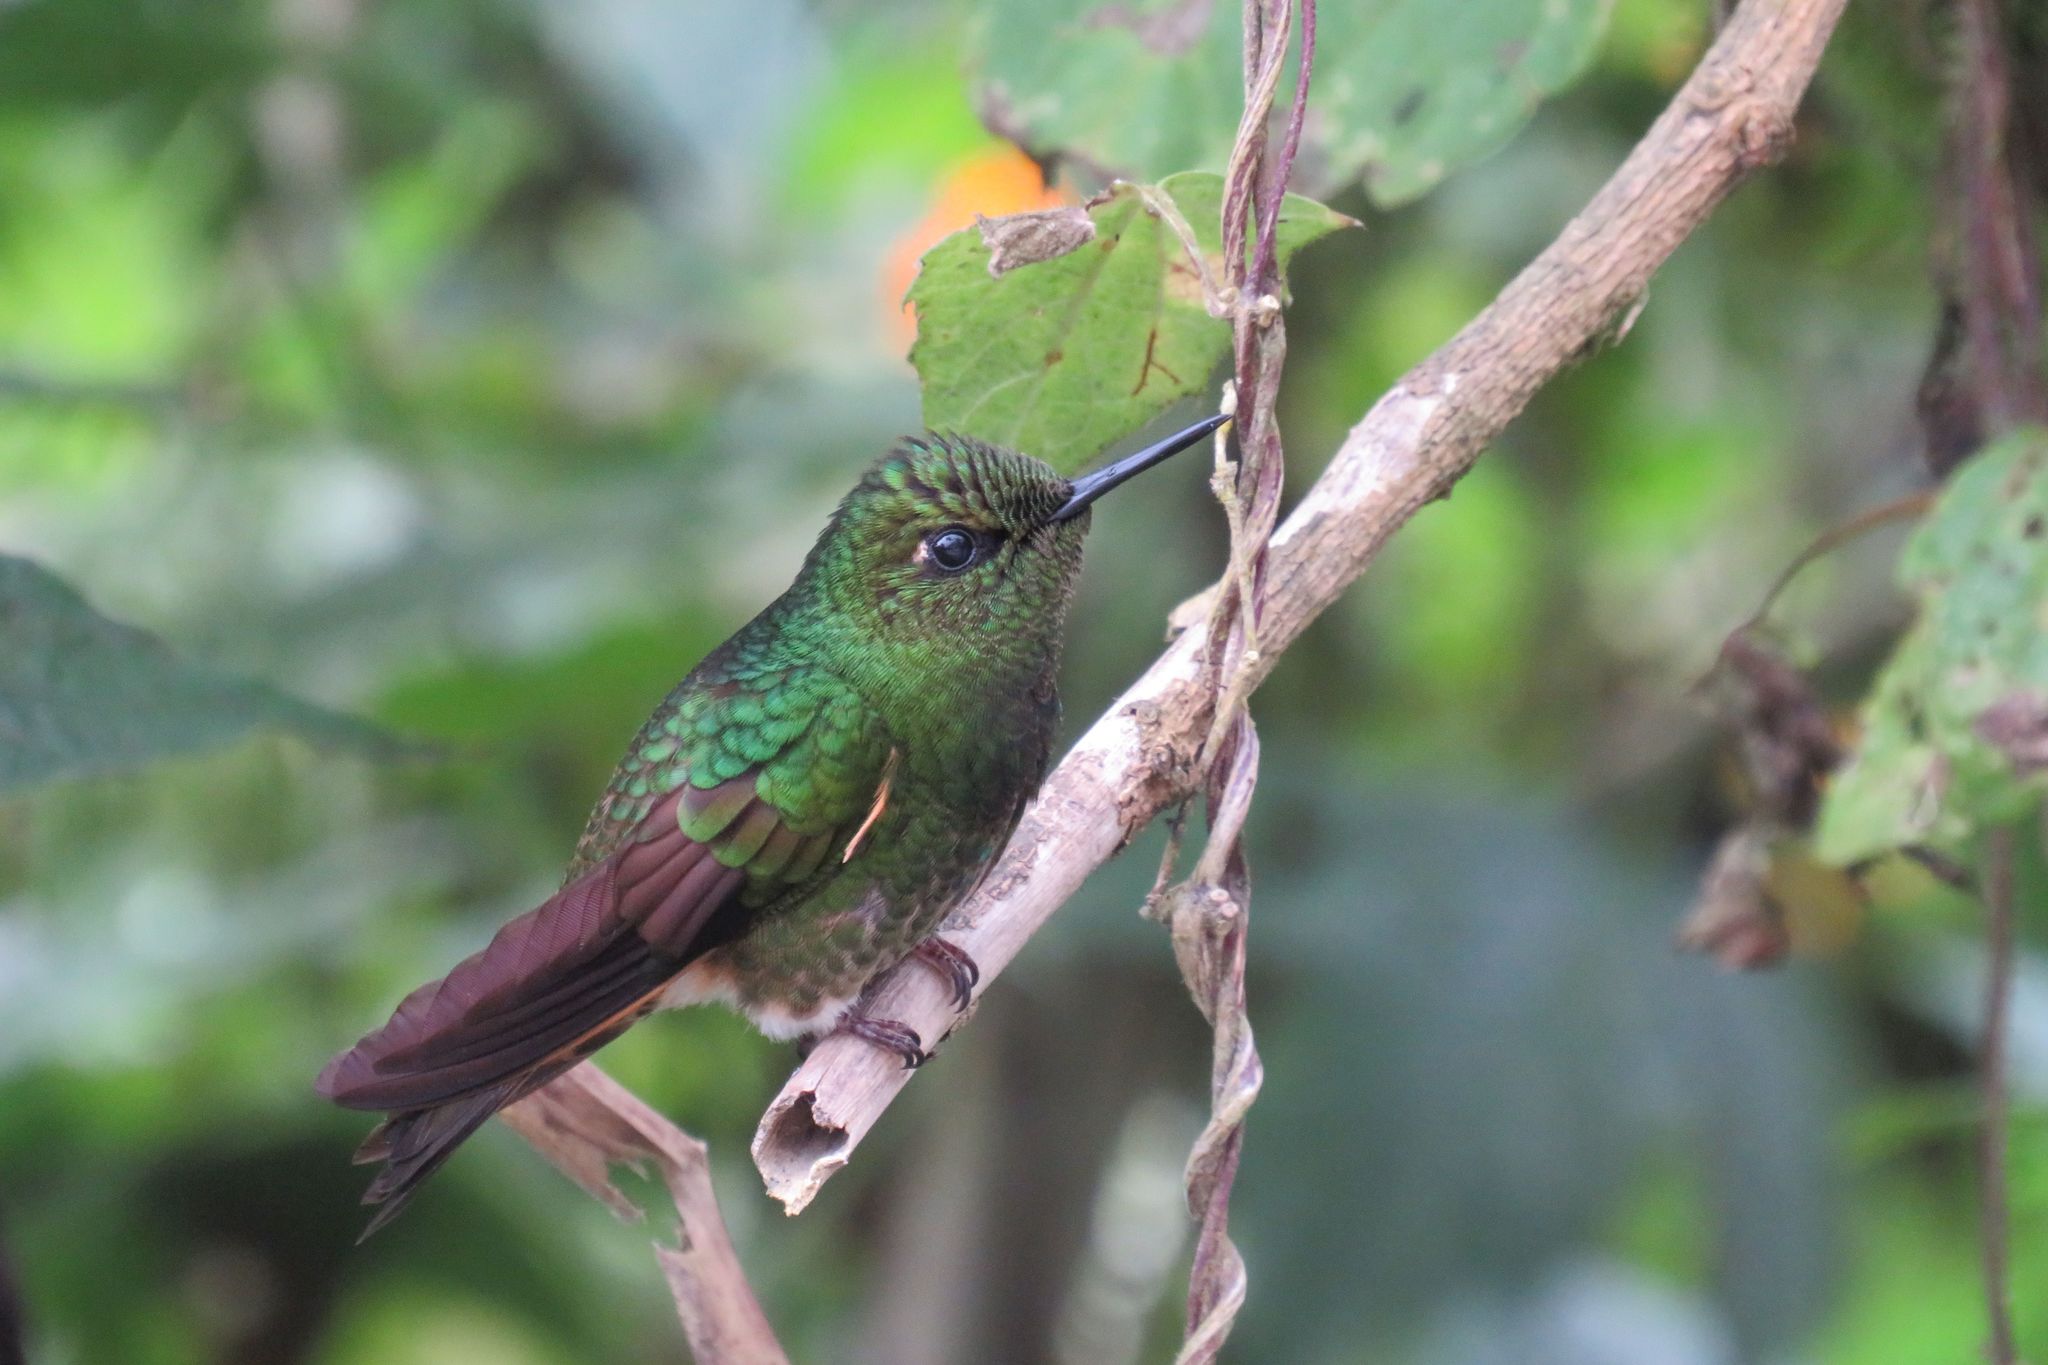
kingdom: Animalia
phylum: Chordata
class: Aves
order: Apodiformes
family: Trochilidae
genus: Boissonneaua
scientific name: Boissonneaua flavescens
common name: Buff-tailed coronet
